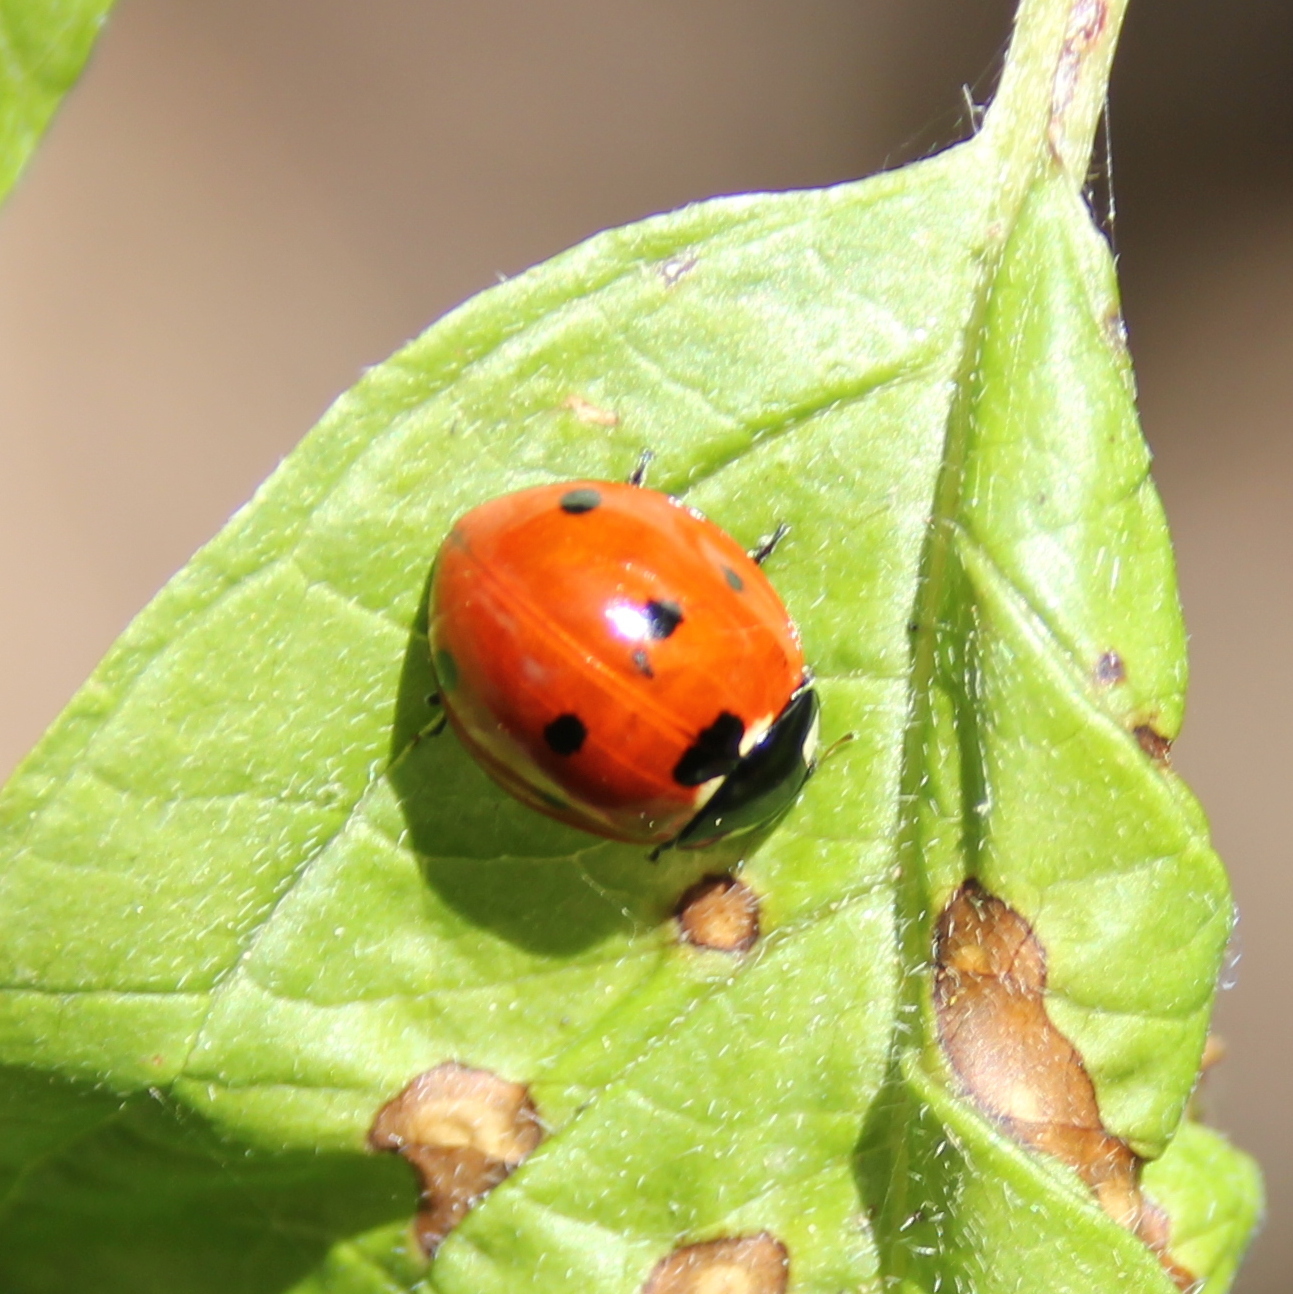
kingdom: Animalia
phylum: Arthropoda
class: Insecta
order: Coleoptera
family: Coccinellidae
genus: Coccinella
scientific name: Coccinella septempunctata
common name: Sevenspotted lady beetle
